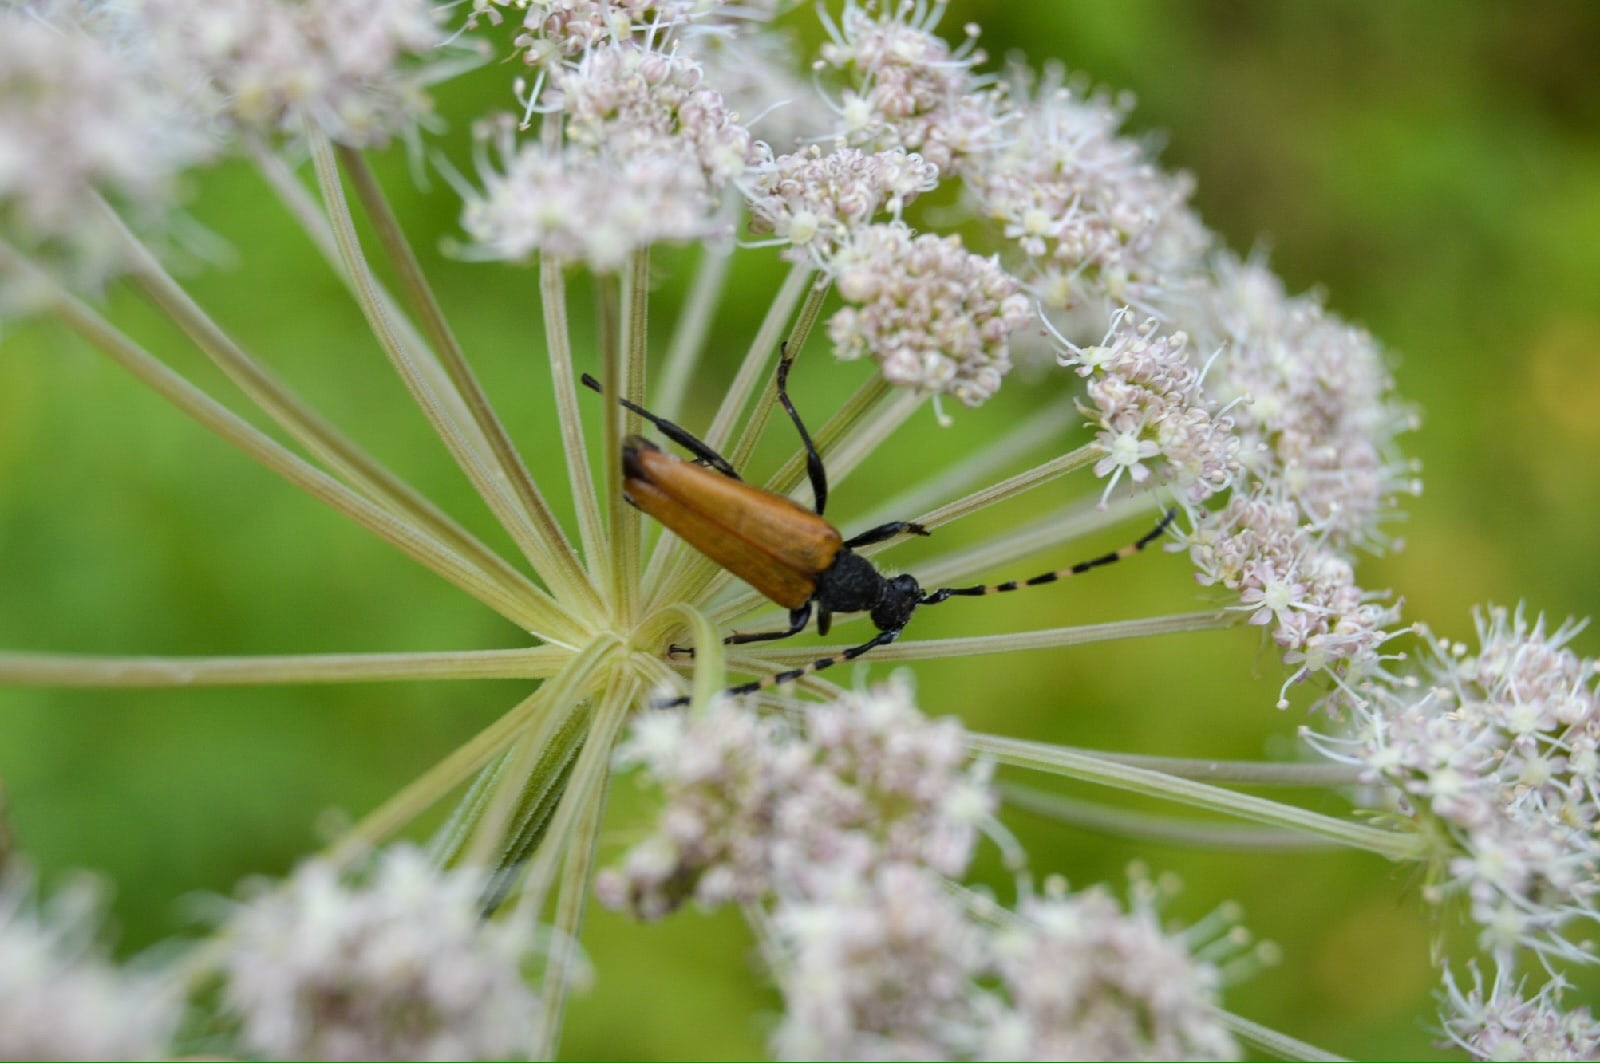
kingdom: Animalia
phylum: Arthropoda
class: Insecta
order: Coleoptera
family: Cerambycidae
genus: Stictoleptura
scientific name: Stictoleptura variicornis
